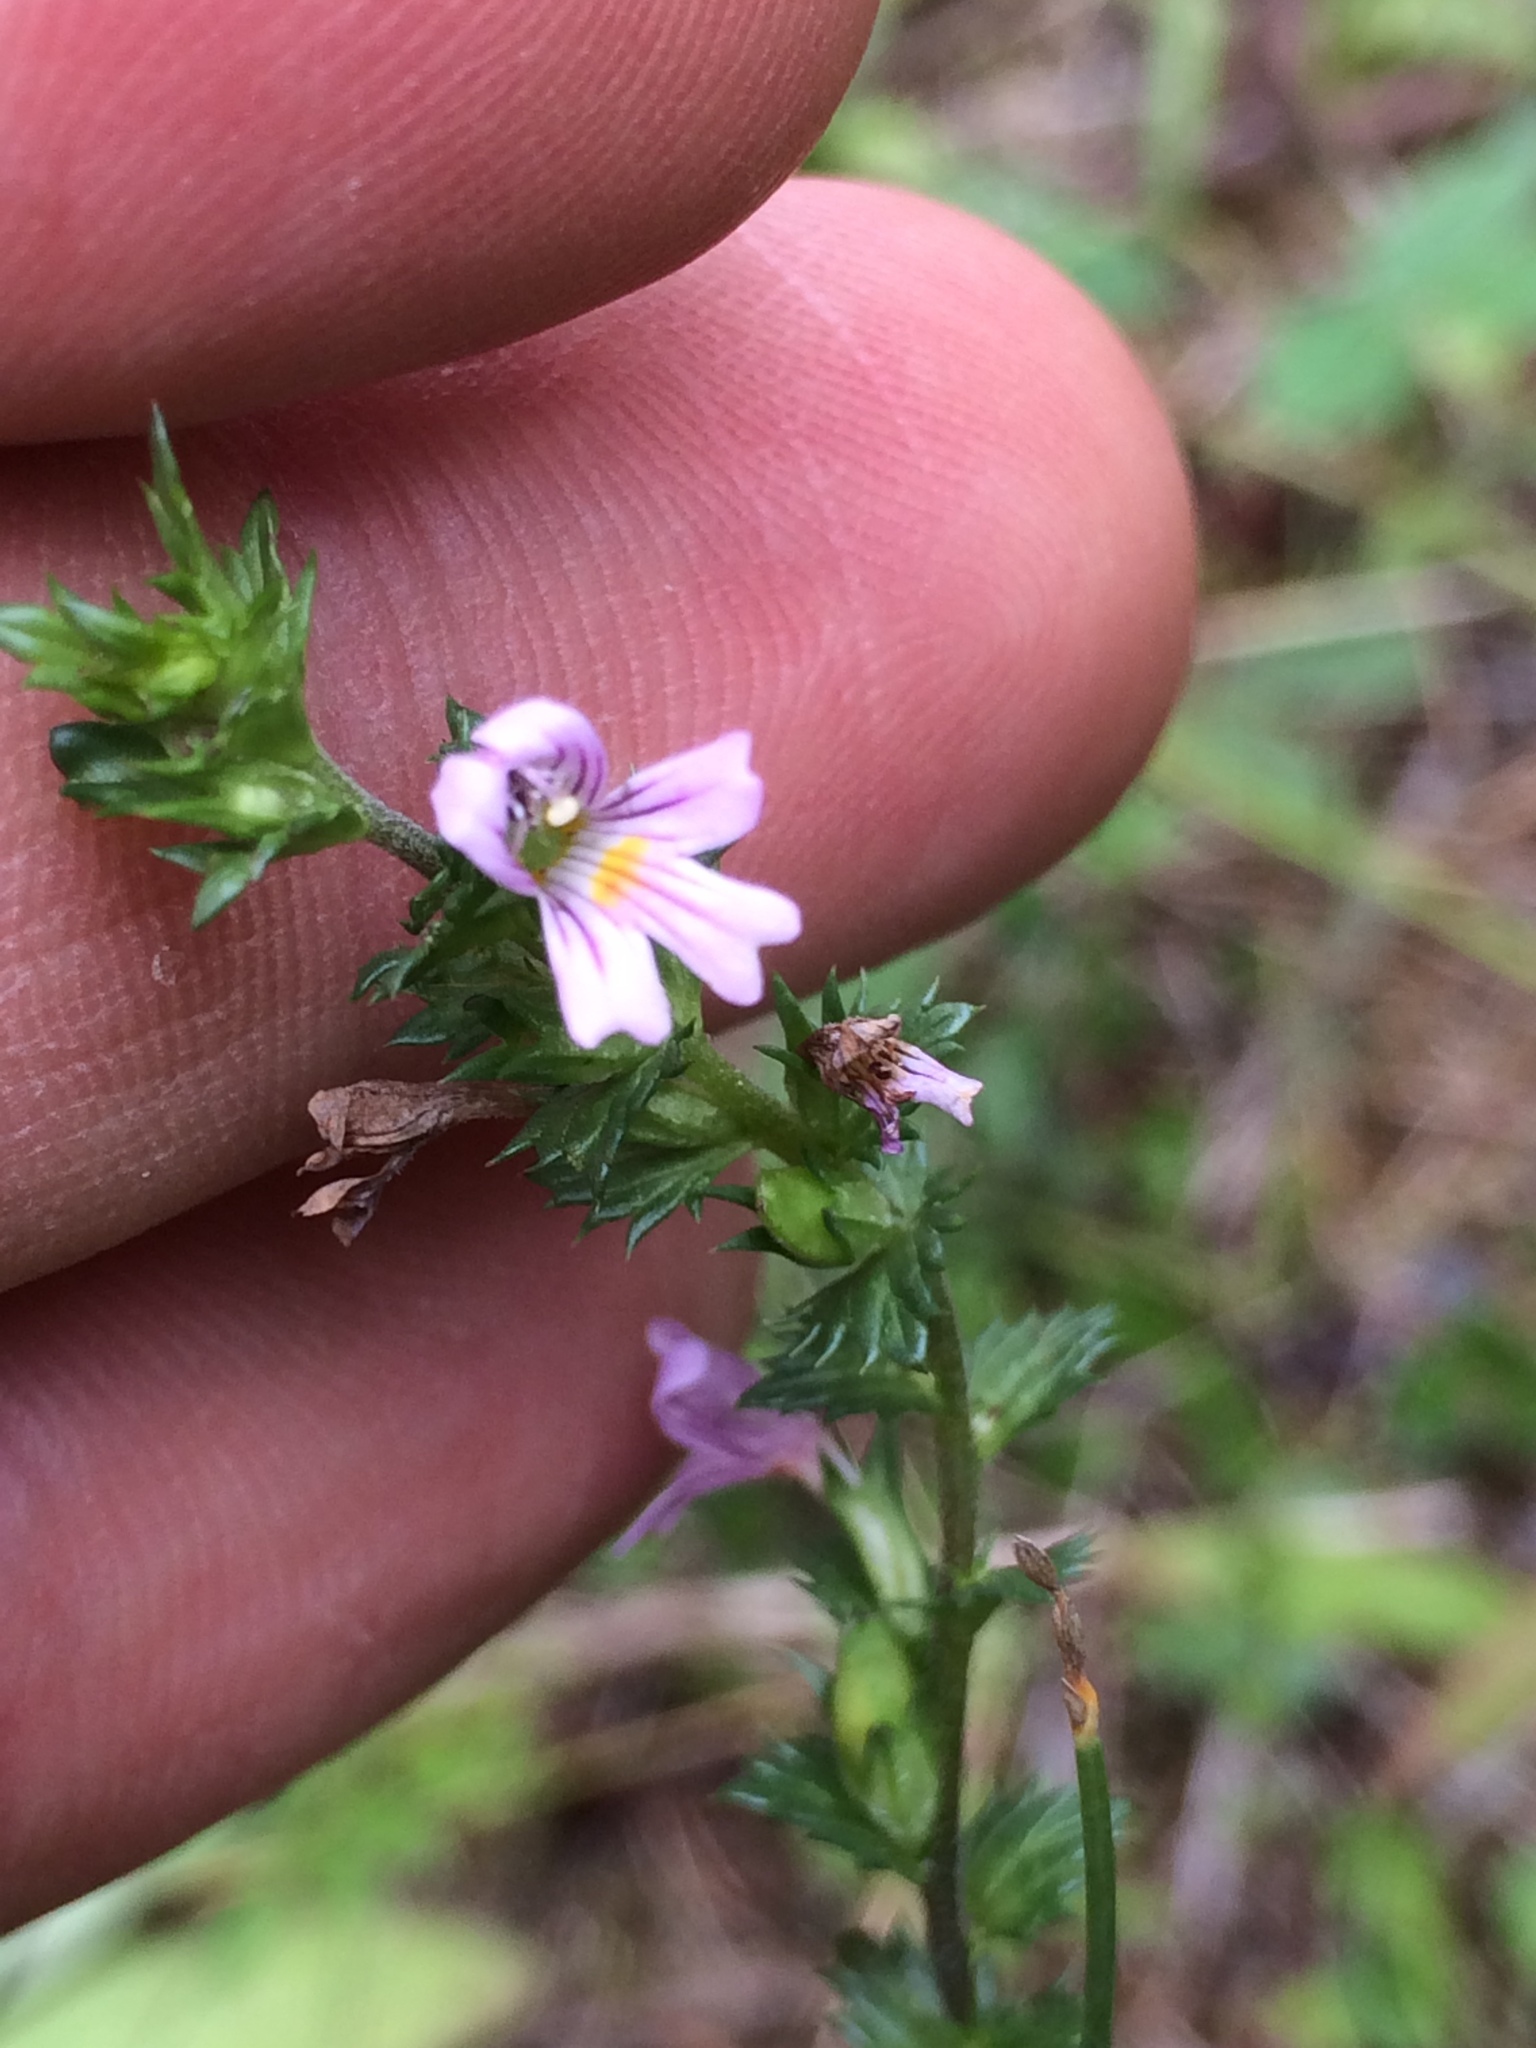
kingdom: Plantae
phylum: Tracheophyta
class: Magnoliopsida
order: Lamiales
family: Orobanchaceae
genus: Euphrasia
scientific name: Euphrasia stricta
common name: Drug eyebright
